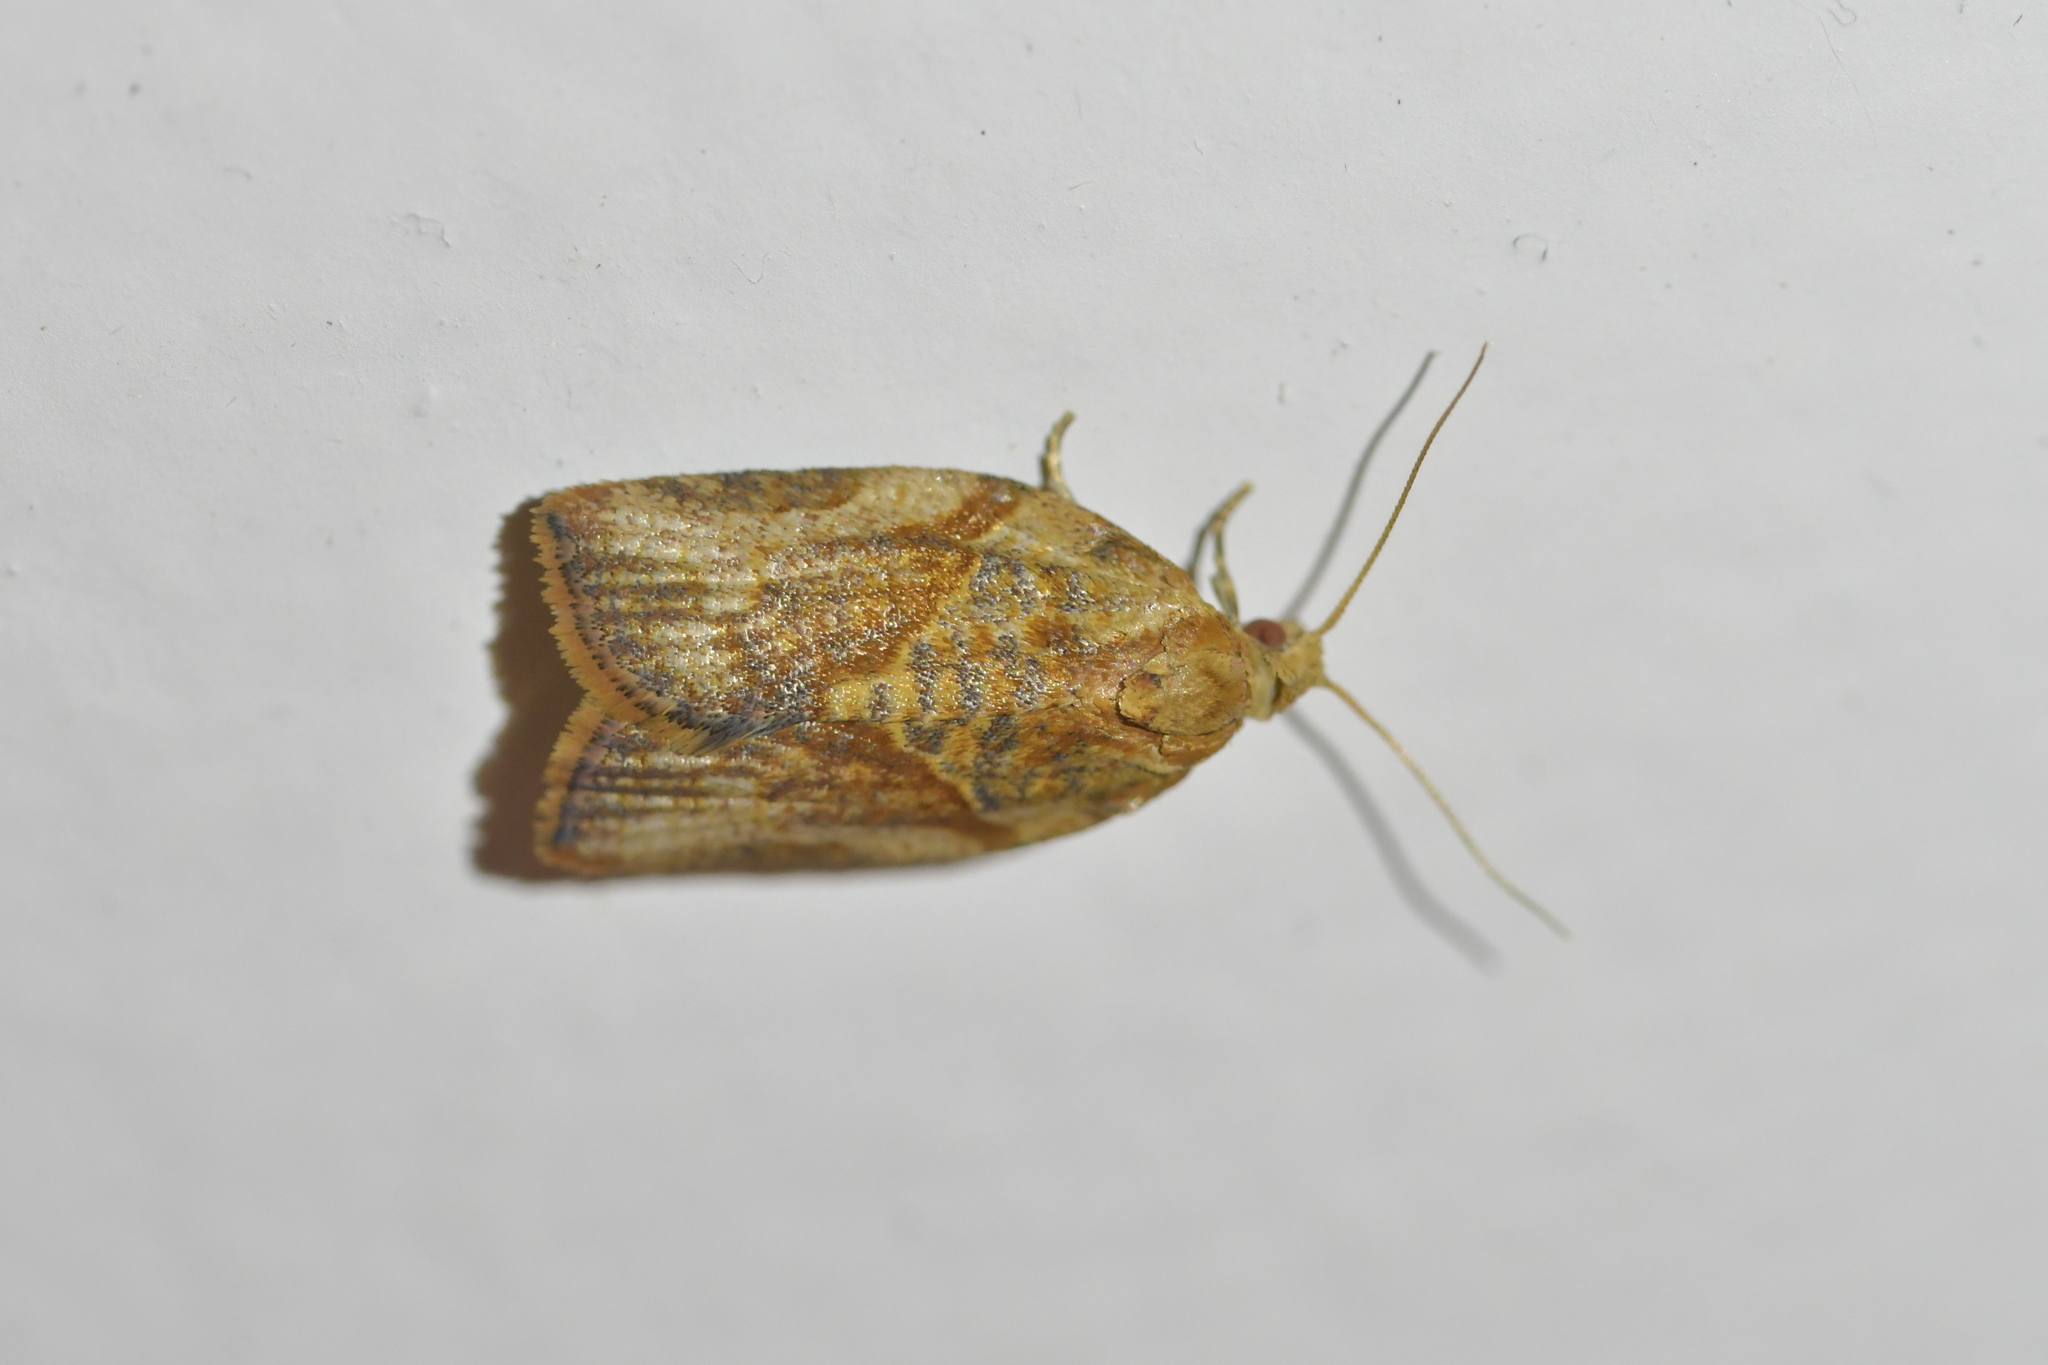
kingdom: Animalia
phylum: Arthropoda
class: Insecta
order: Lepidoptera
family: Tortricidae
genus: Epiphyas
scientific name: Epiphyas postvittana
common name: Light brown apple moth
